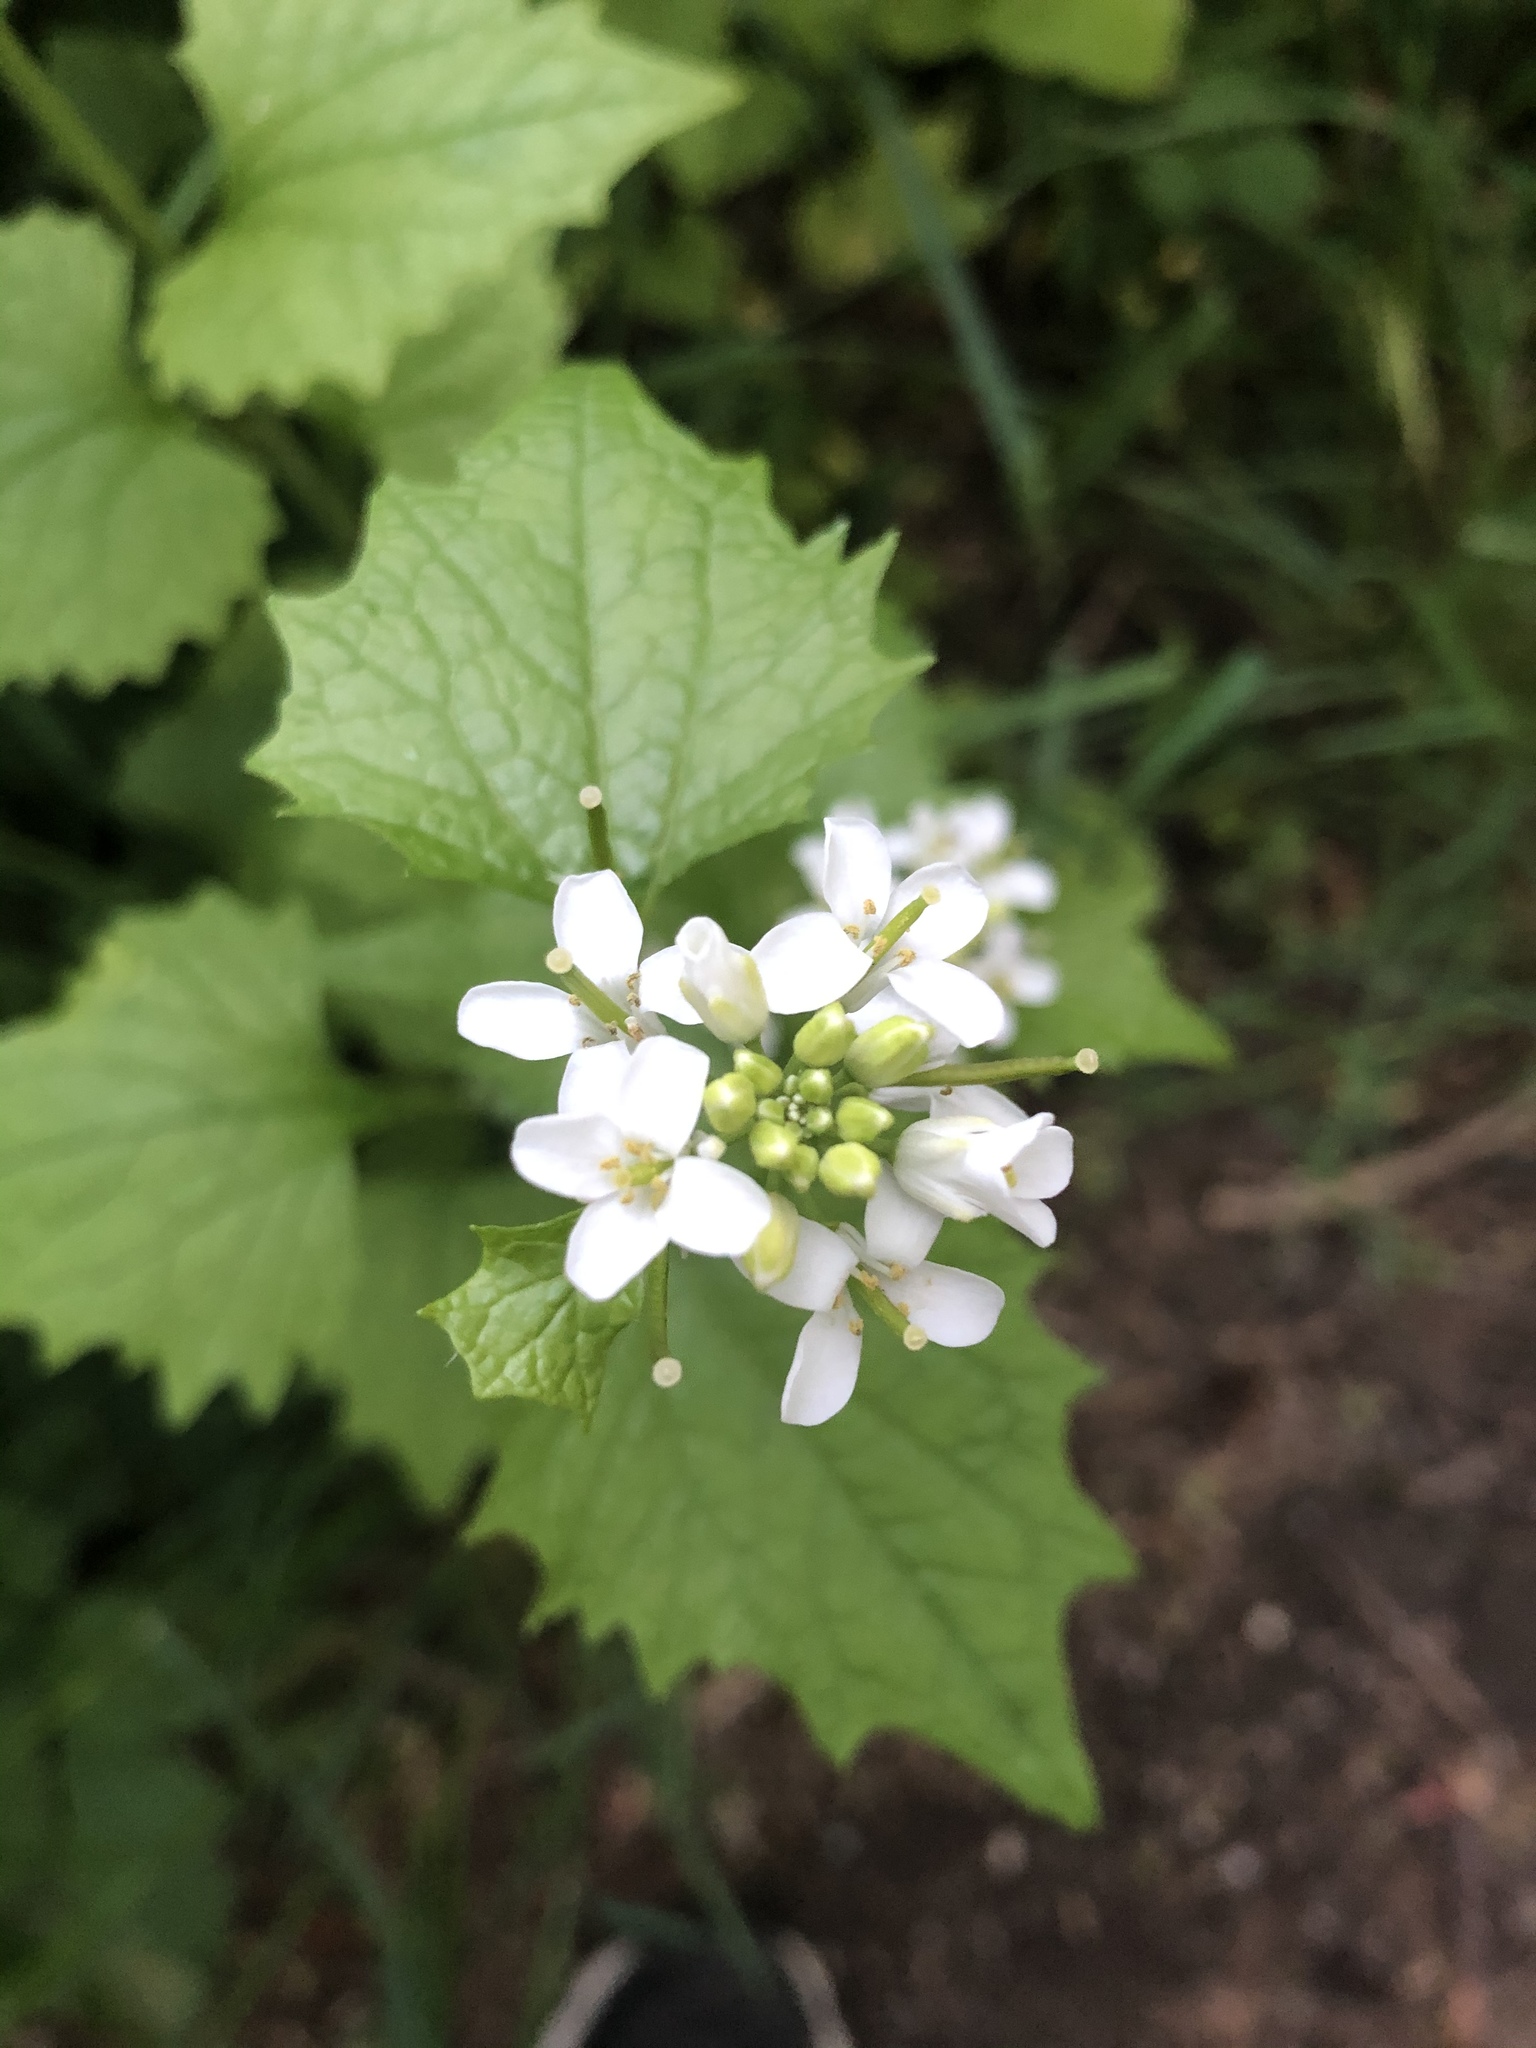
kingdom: Plantae
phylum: Tracheophyta
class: Magnoliopsida
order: Brassicales
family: Brassicaceae
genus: Alliaria
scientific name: Alliaria petiolata
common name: Garlic mustard
